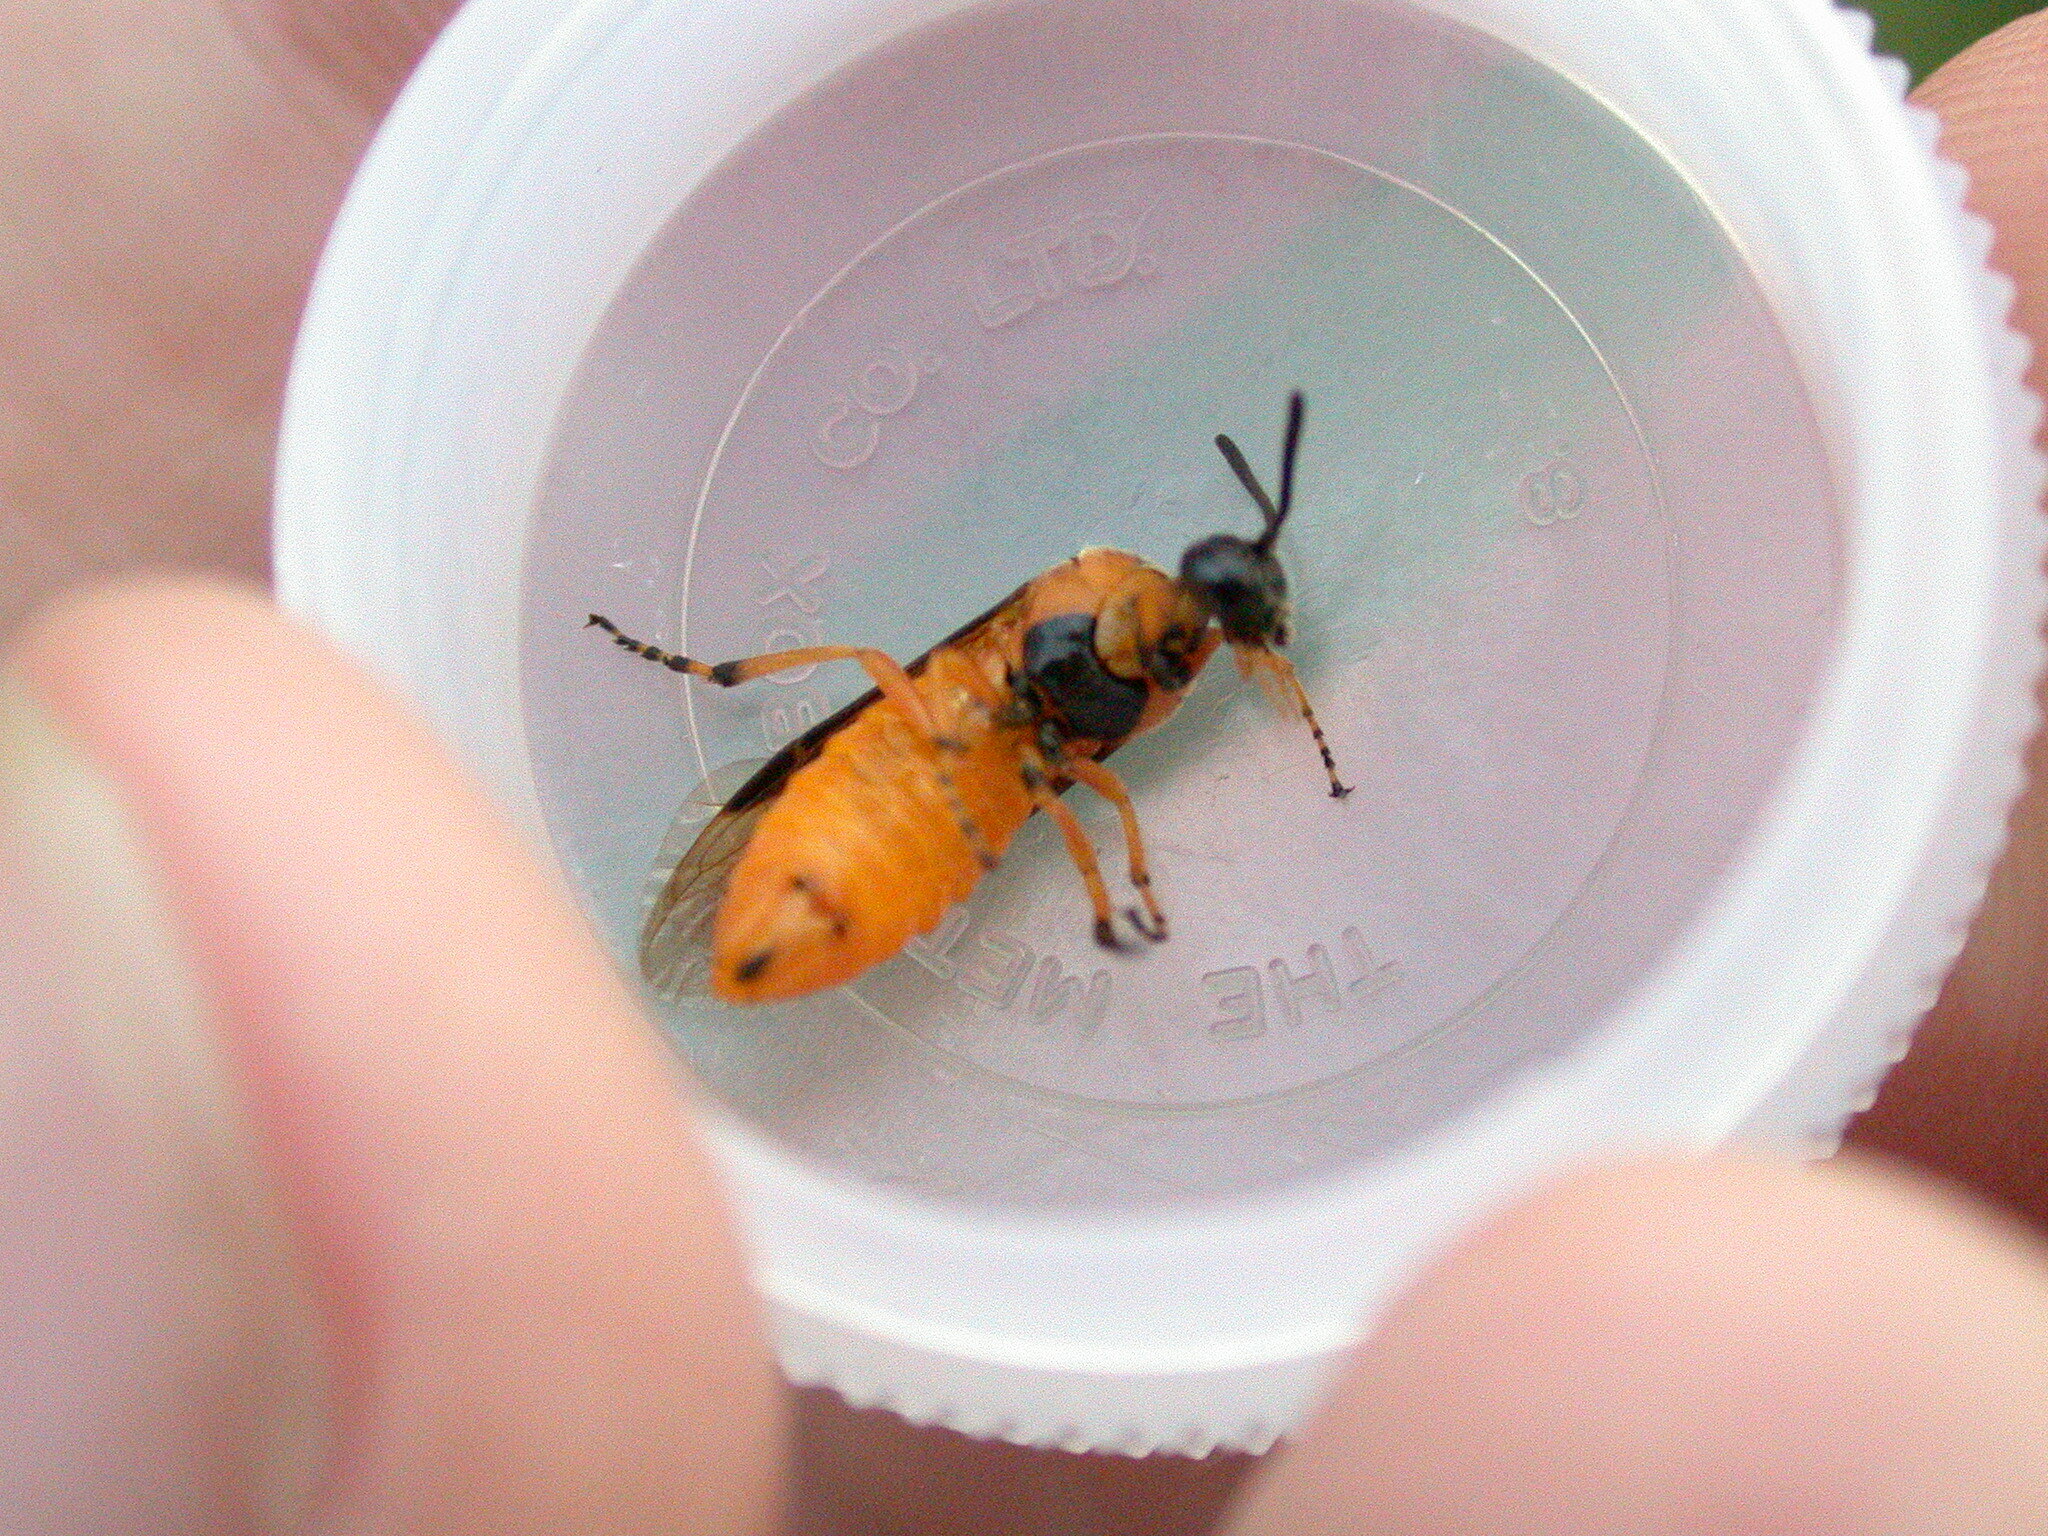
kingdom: Animalia
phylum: Arthropoda
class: Insecta
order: Hymenoptera
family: Argidae
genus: Arge
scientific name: Arge ochropus
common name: Argid sawfly
